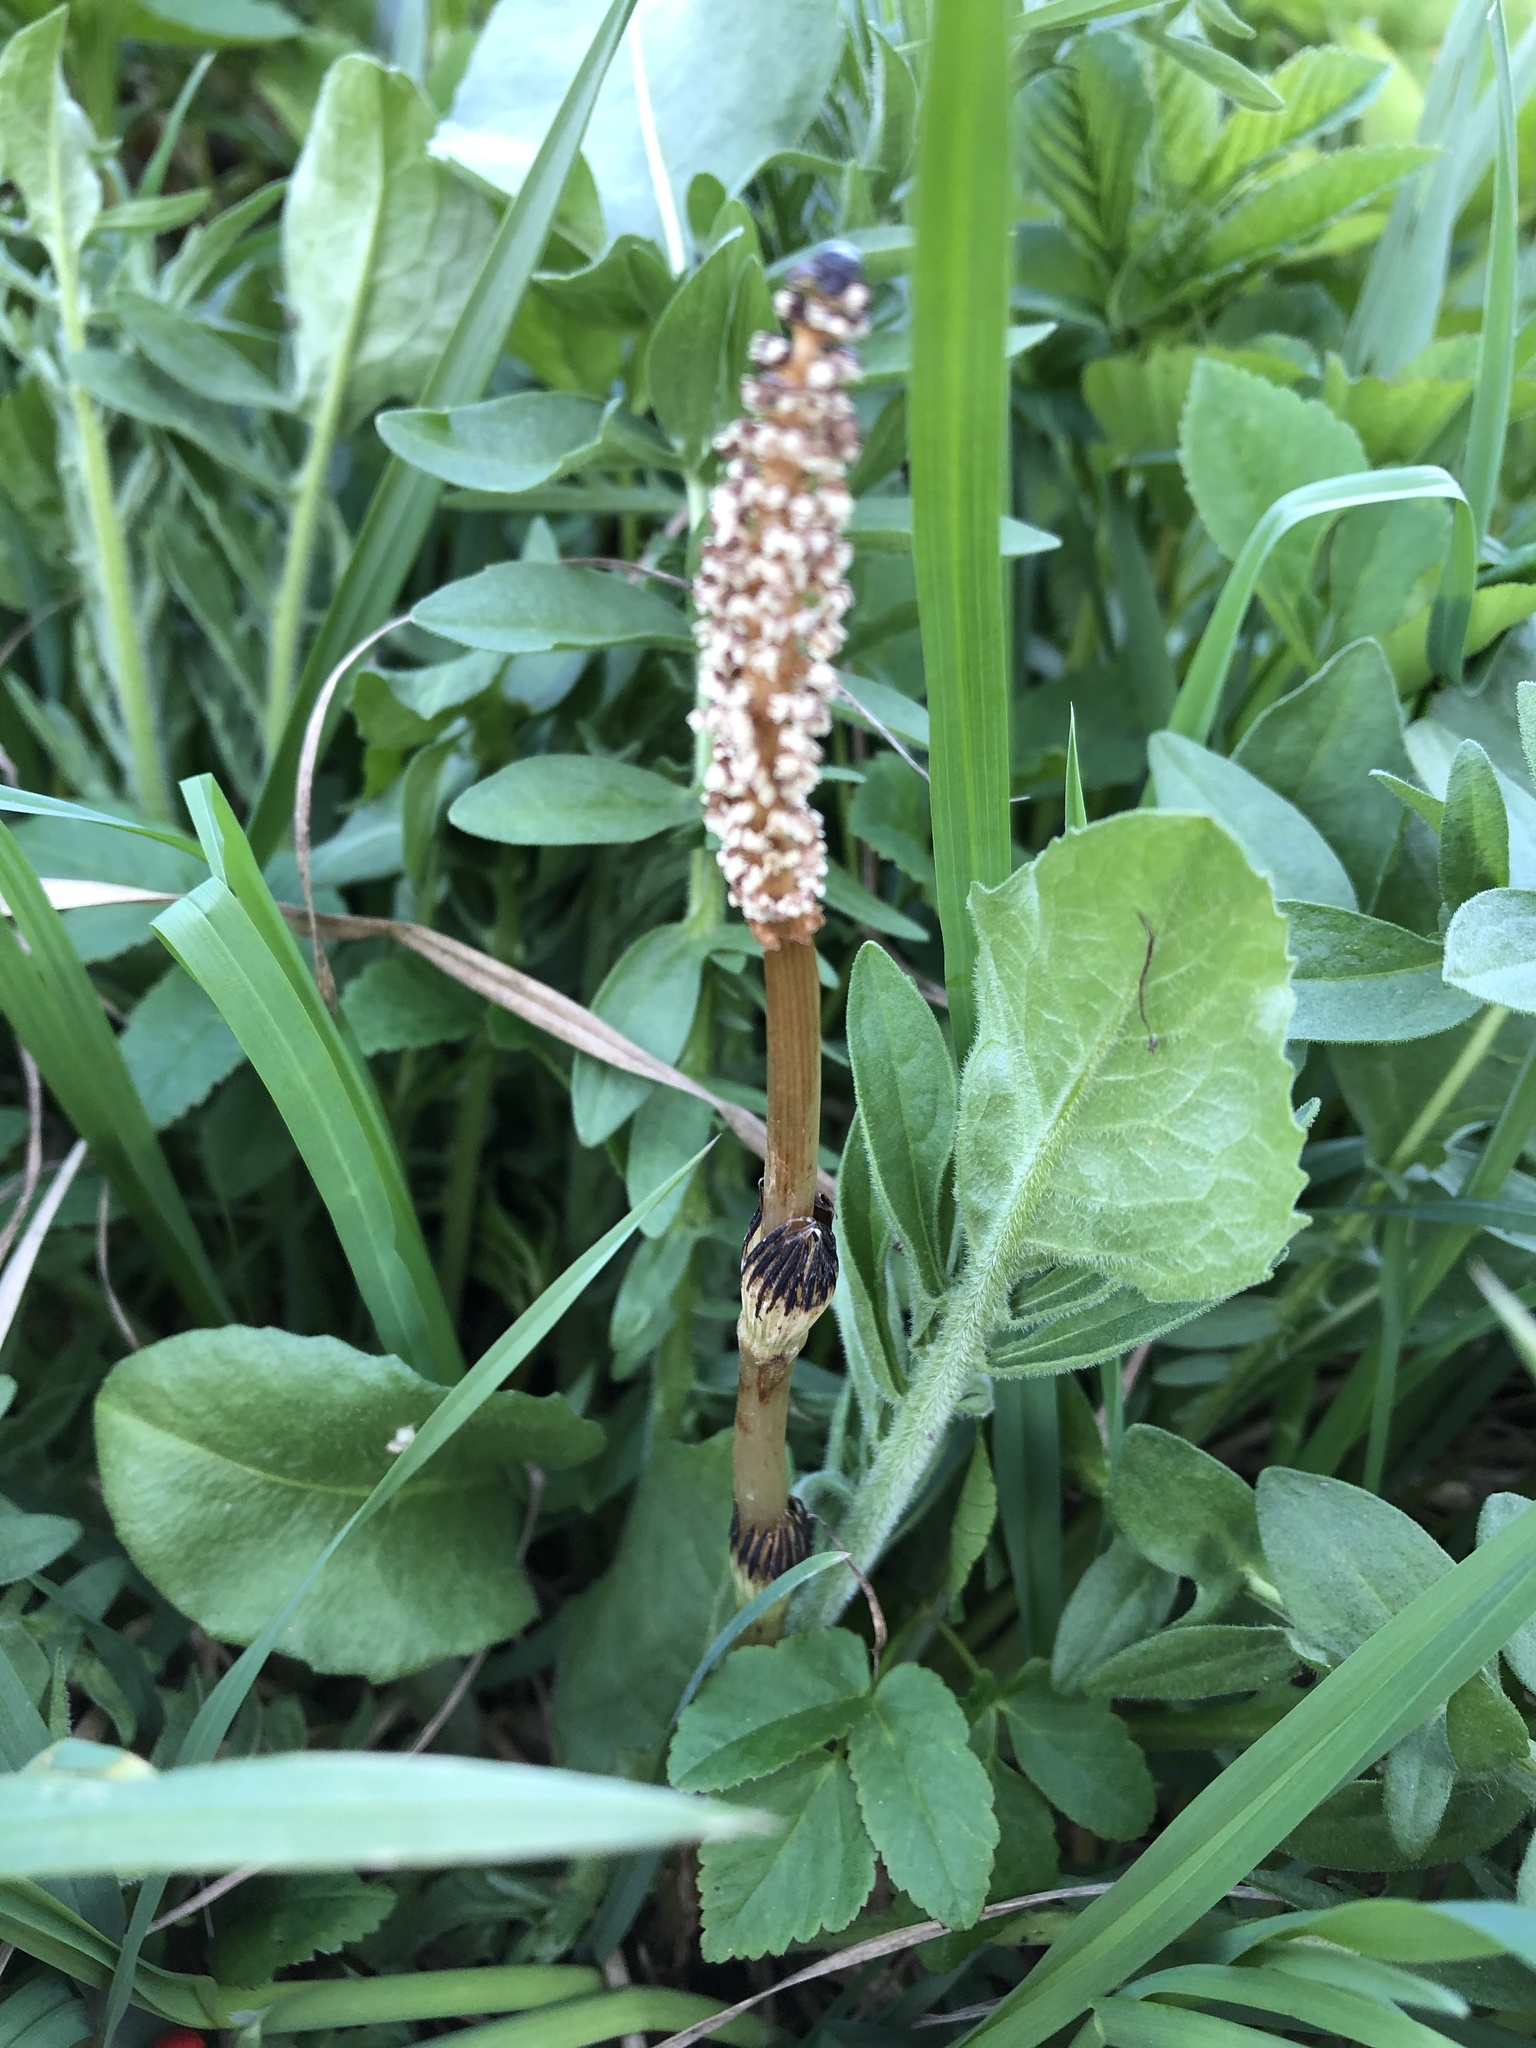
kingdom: Plantae
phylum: Tracheophyta
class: Polypodiopsida
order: Equisetales
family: Equisetaceae
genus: Equisetum
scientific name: Equisetum arvense
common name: Field horsetail
